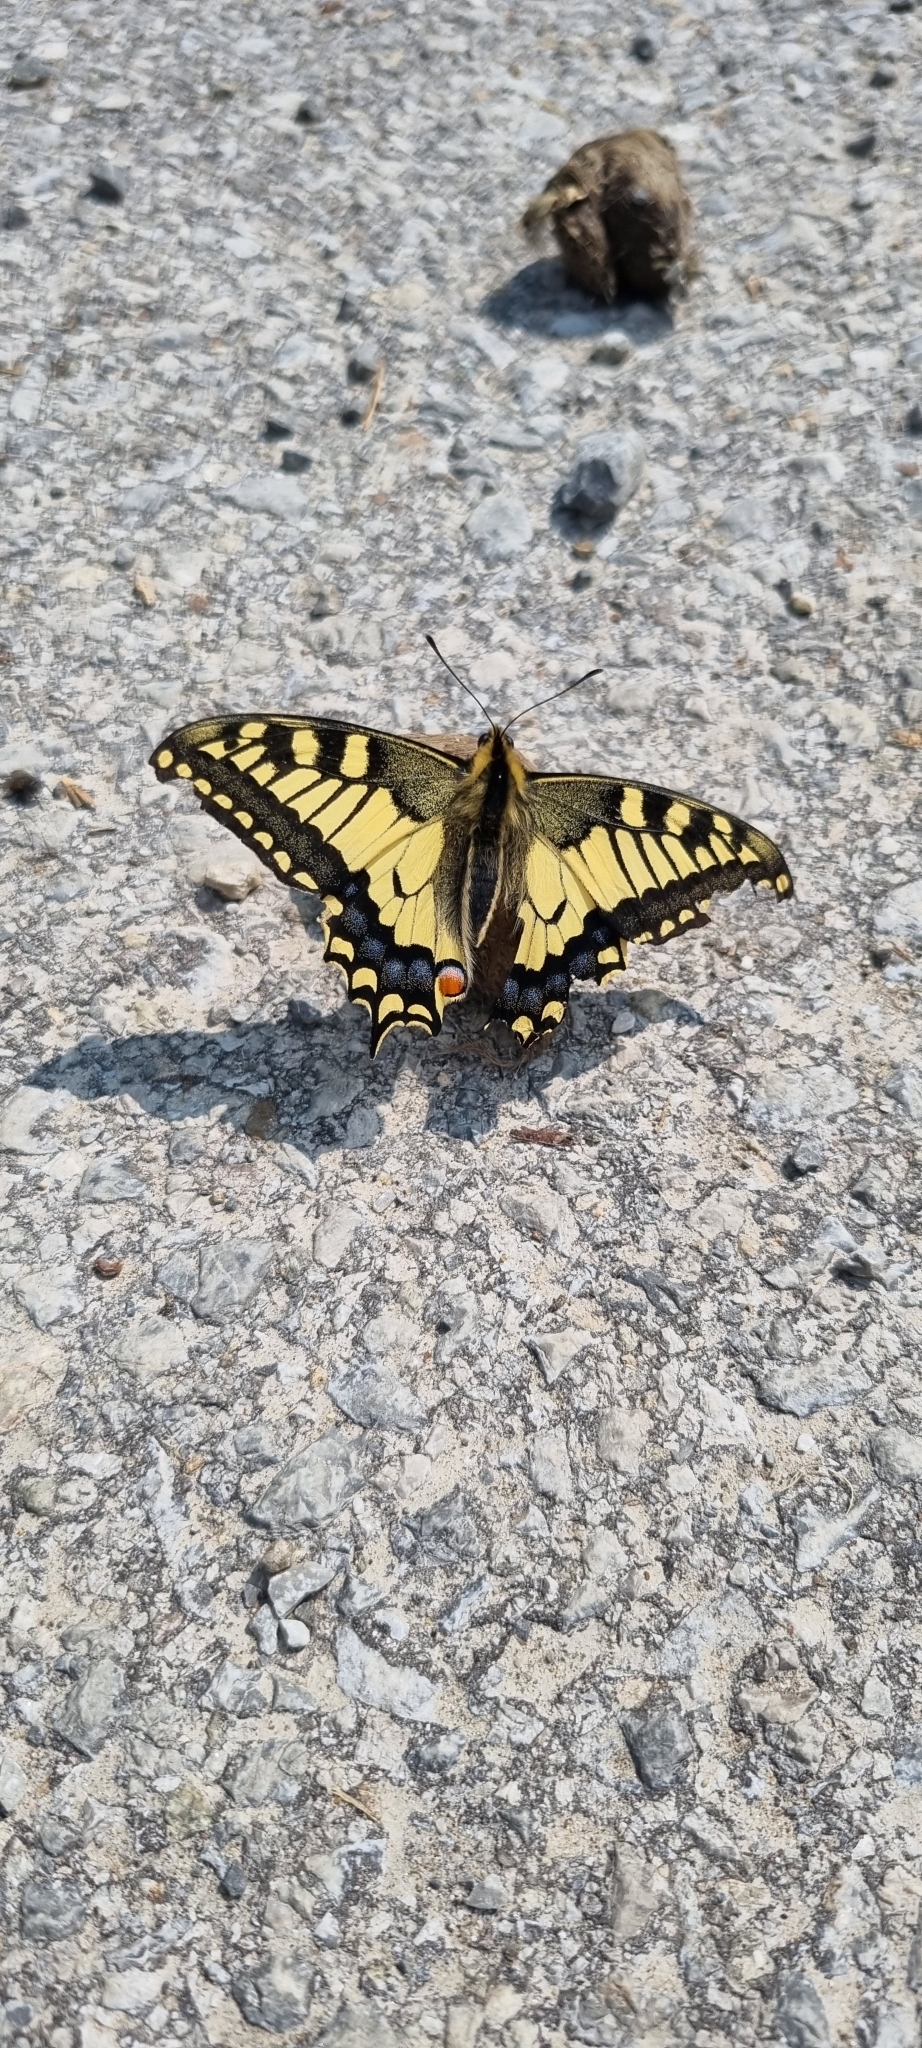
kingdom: Animalia
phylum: Arthropoda
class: Insecta
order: Lepidoptera
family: Papilionidae
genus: Papilio
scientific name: Papilio machaon
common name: Swallowtail
